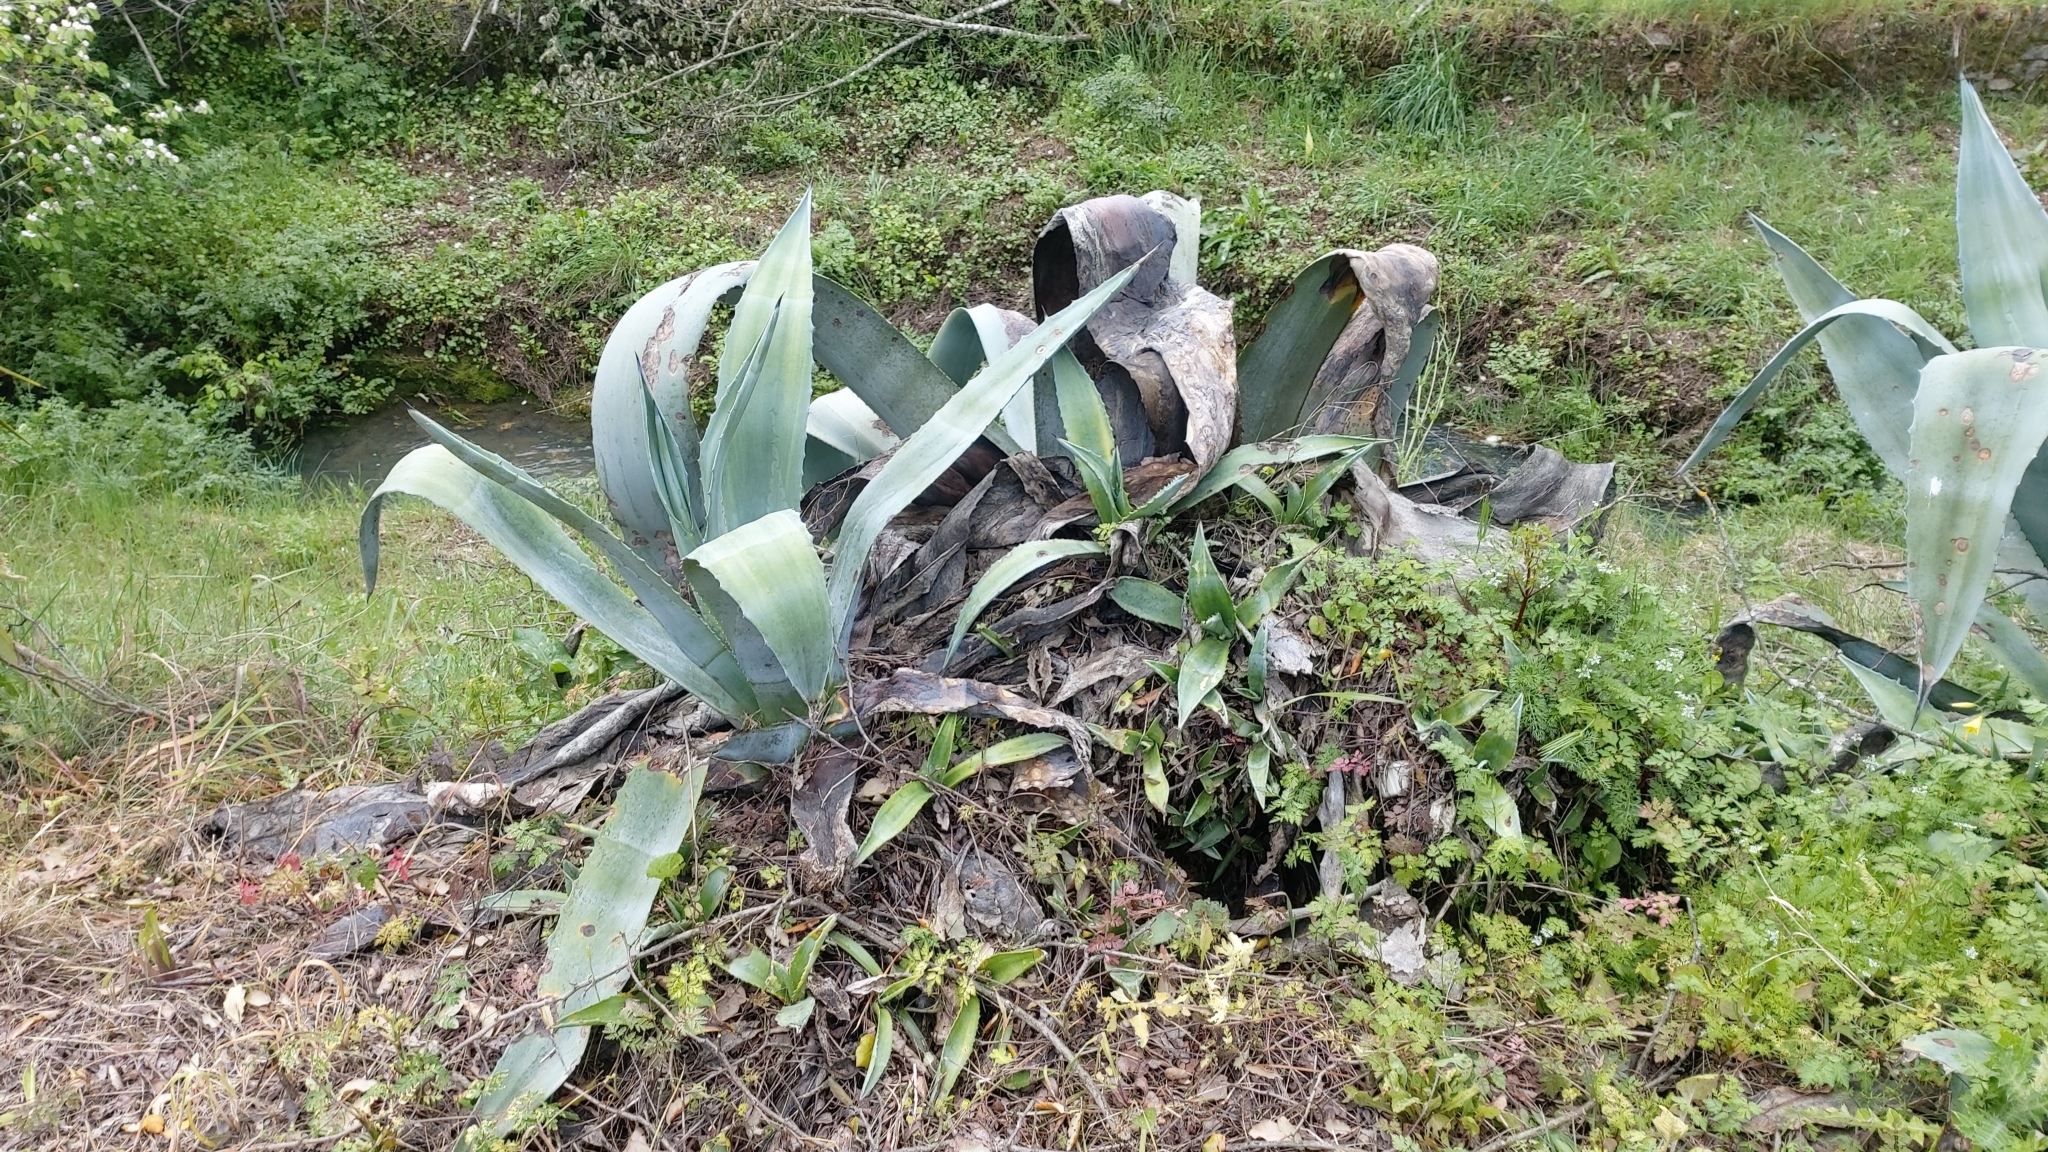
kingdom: Plantae
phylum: Tracheophyta
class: Liliopsida
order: Asparagales
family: Asparagaceae
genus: Agave
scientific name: Agave americana
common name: Centuryplant
